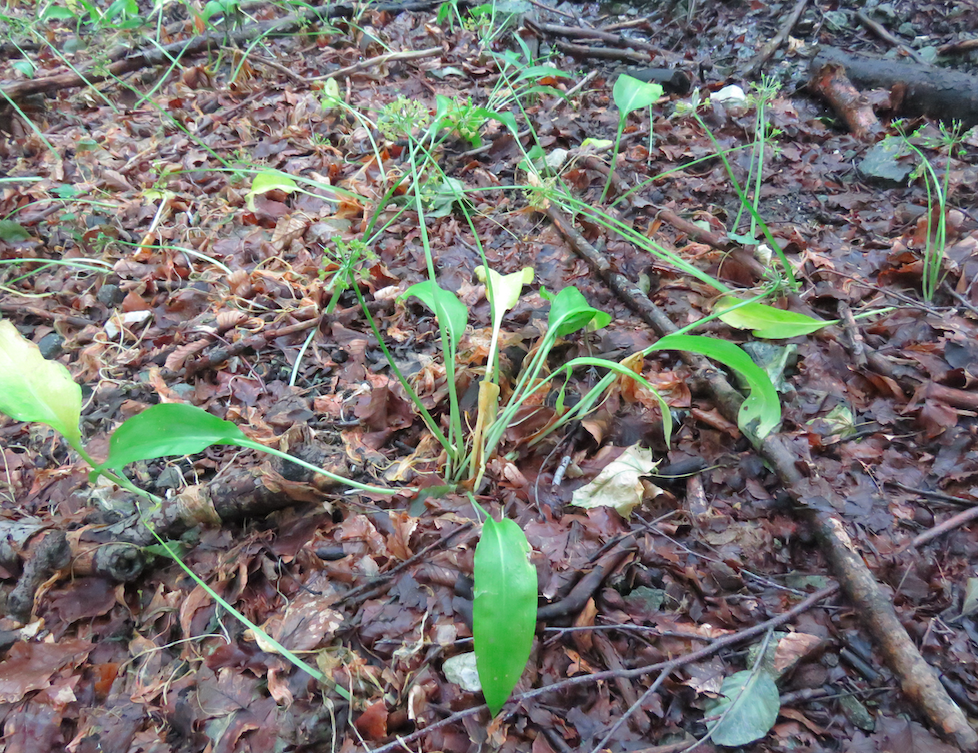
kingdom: Plantae
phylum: Tracheophyta
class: Liliopsida
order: Asparagales
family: Amaryllidaceae
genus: Allium
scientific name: Allium ursinum
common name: Ramsons
